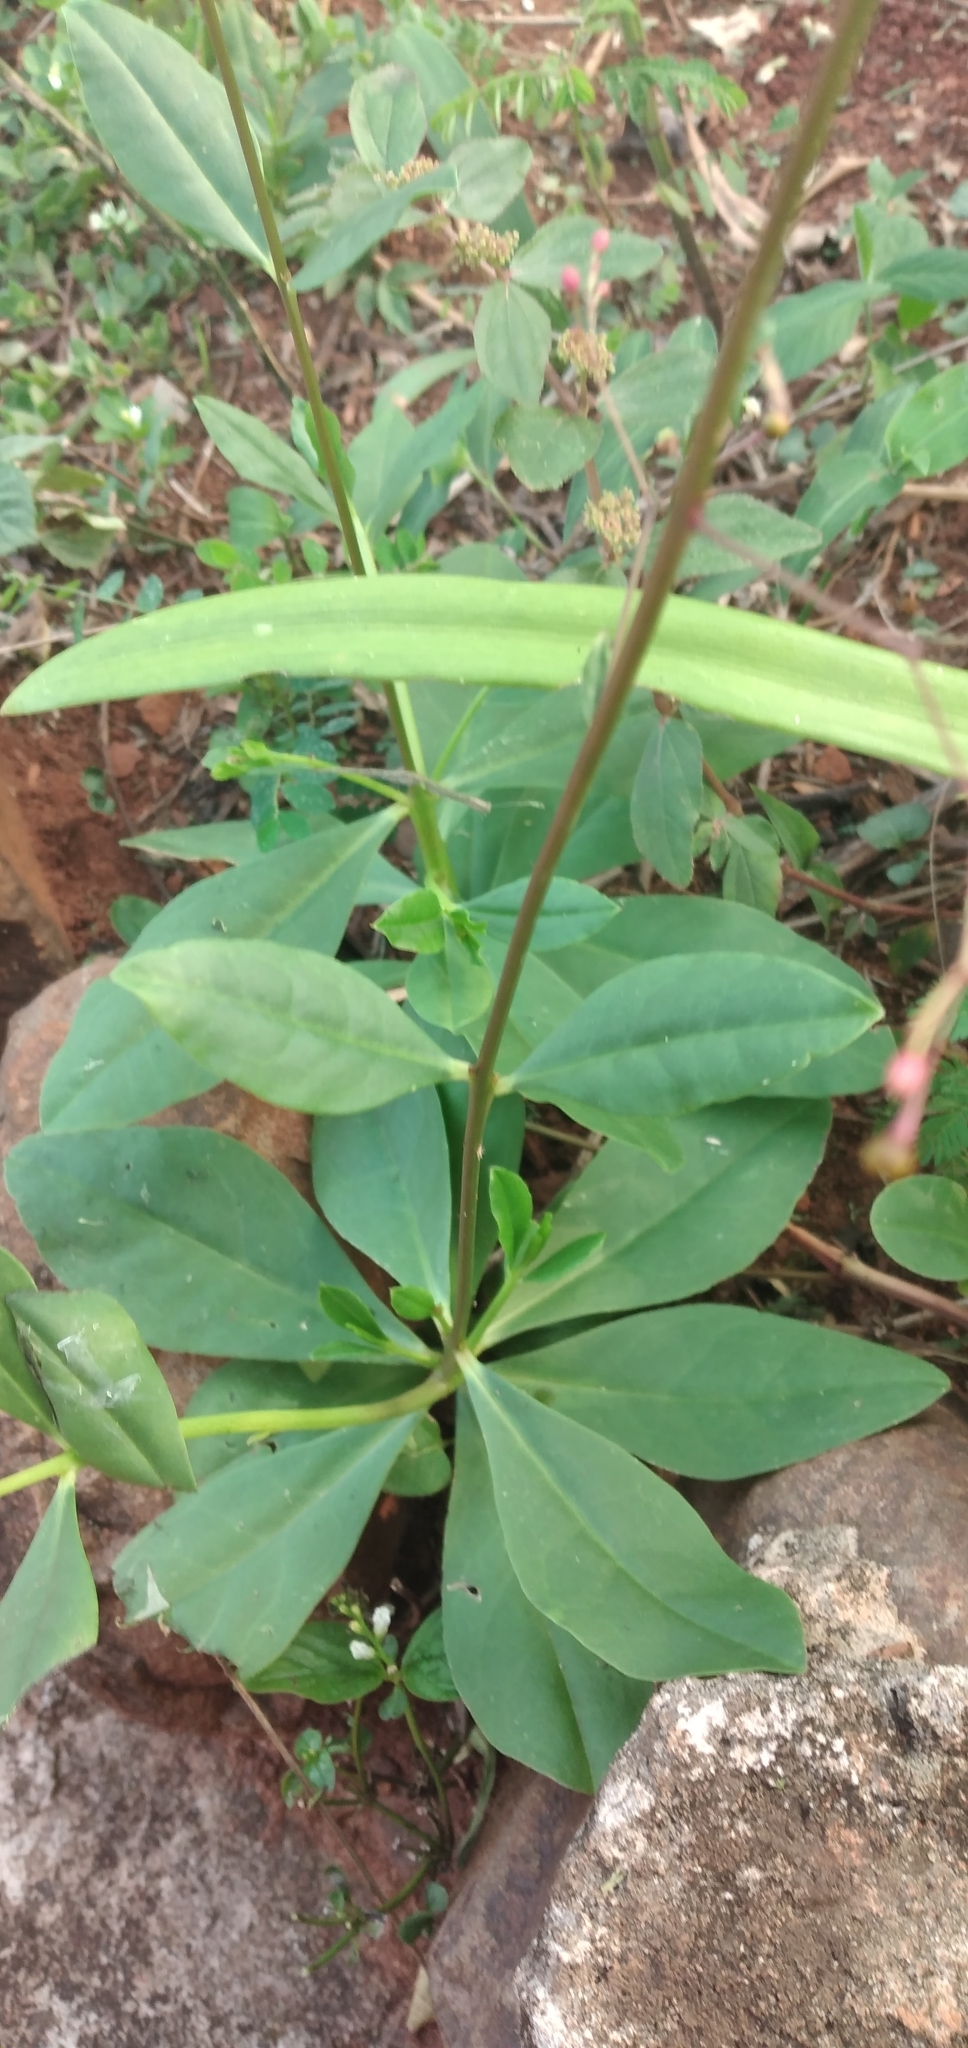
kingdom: Plantae
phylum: Tracheophyta
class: Magnoliopsida
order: Caryophyllales
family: Talinaceae
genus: Talinum
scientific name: Talinum paniculatum
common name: Jewels of opar
